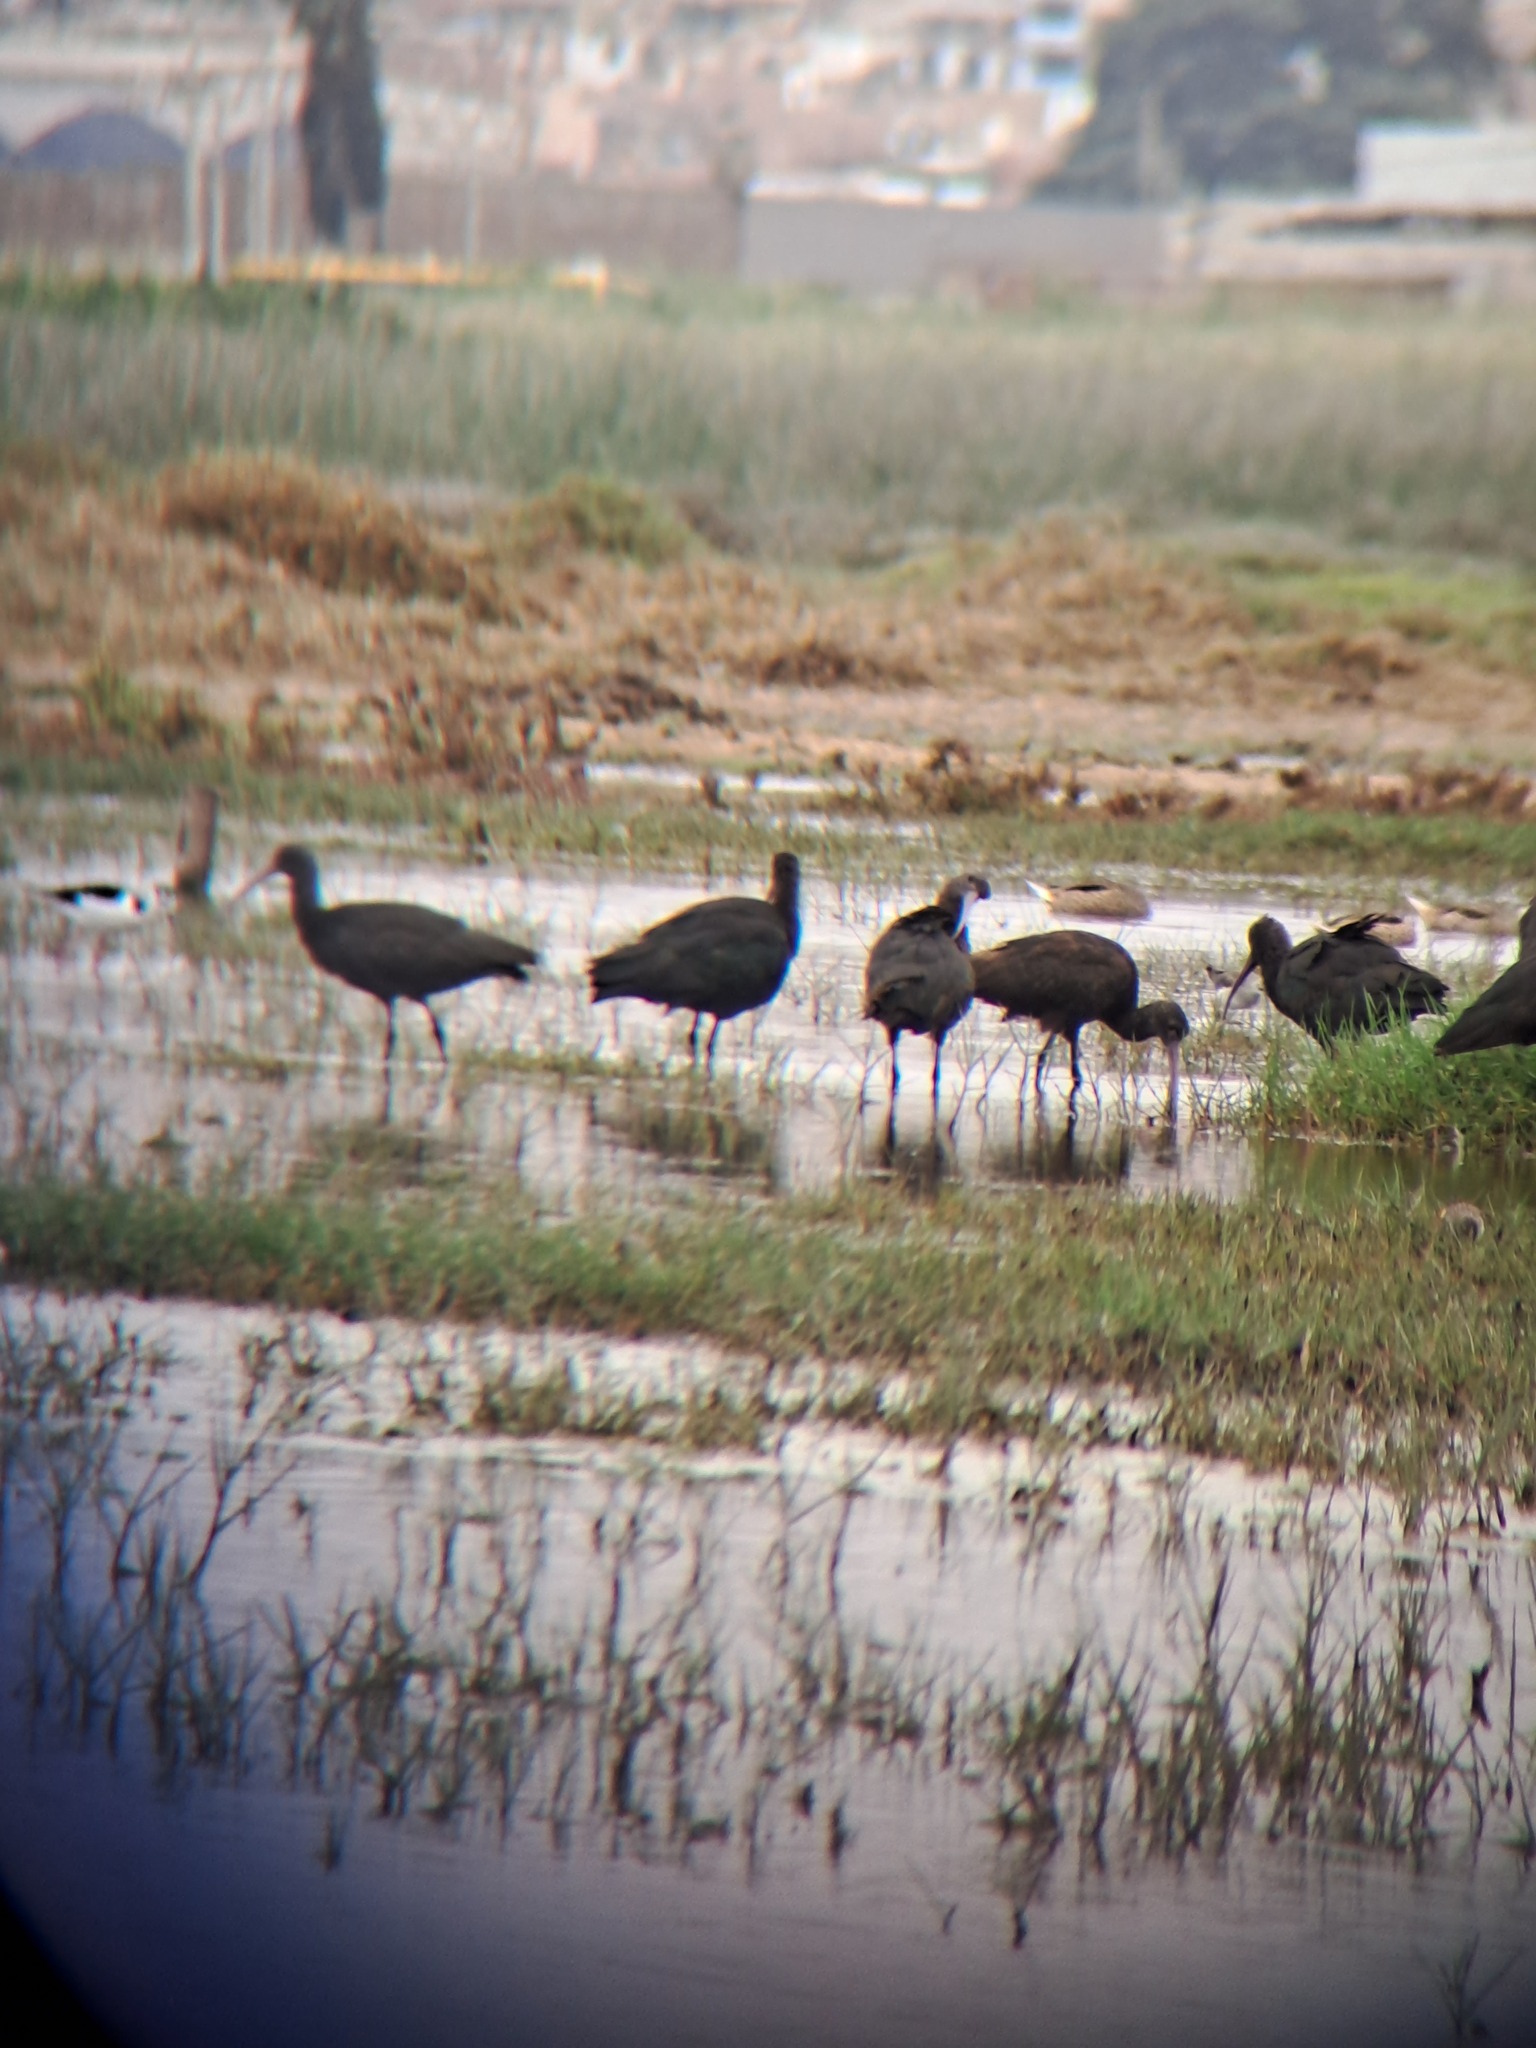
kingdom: Animalia
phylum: Chordata
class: Aves
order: Pelecaniformes
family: Threskiornithidae
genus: Plegadis
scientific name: Plegadis ridgwayi
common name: Puna ibis
